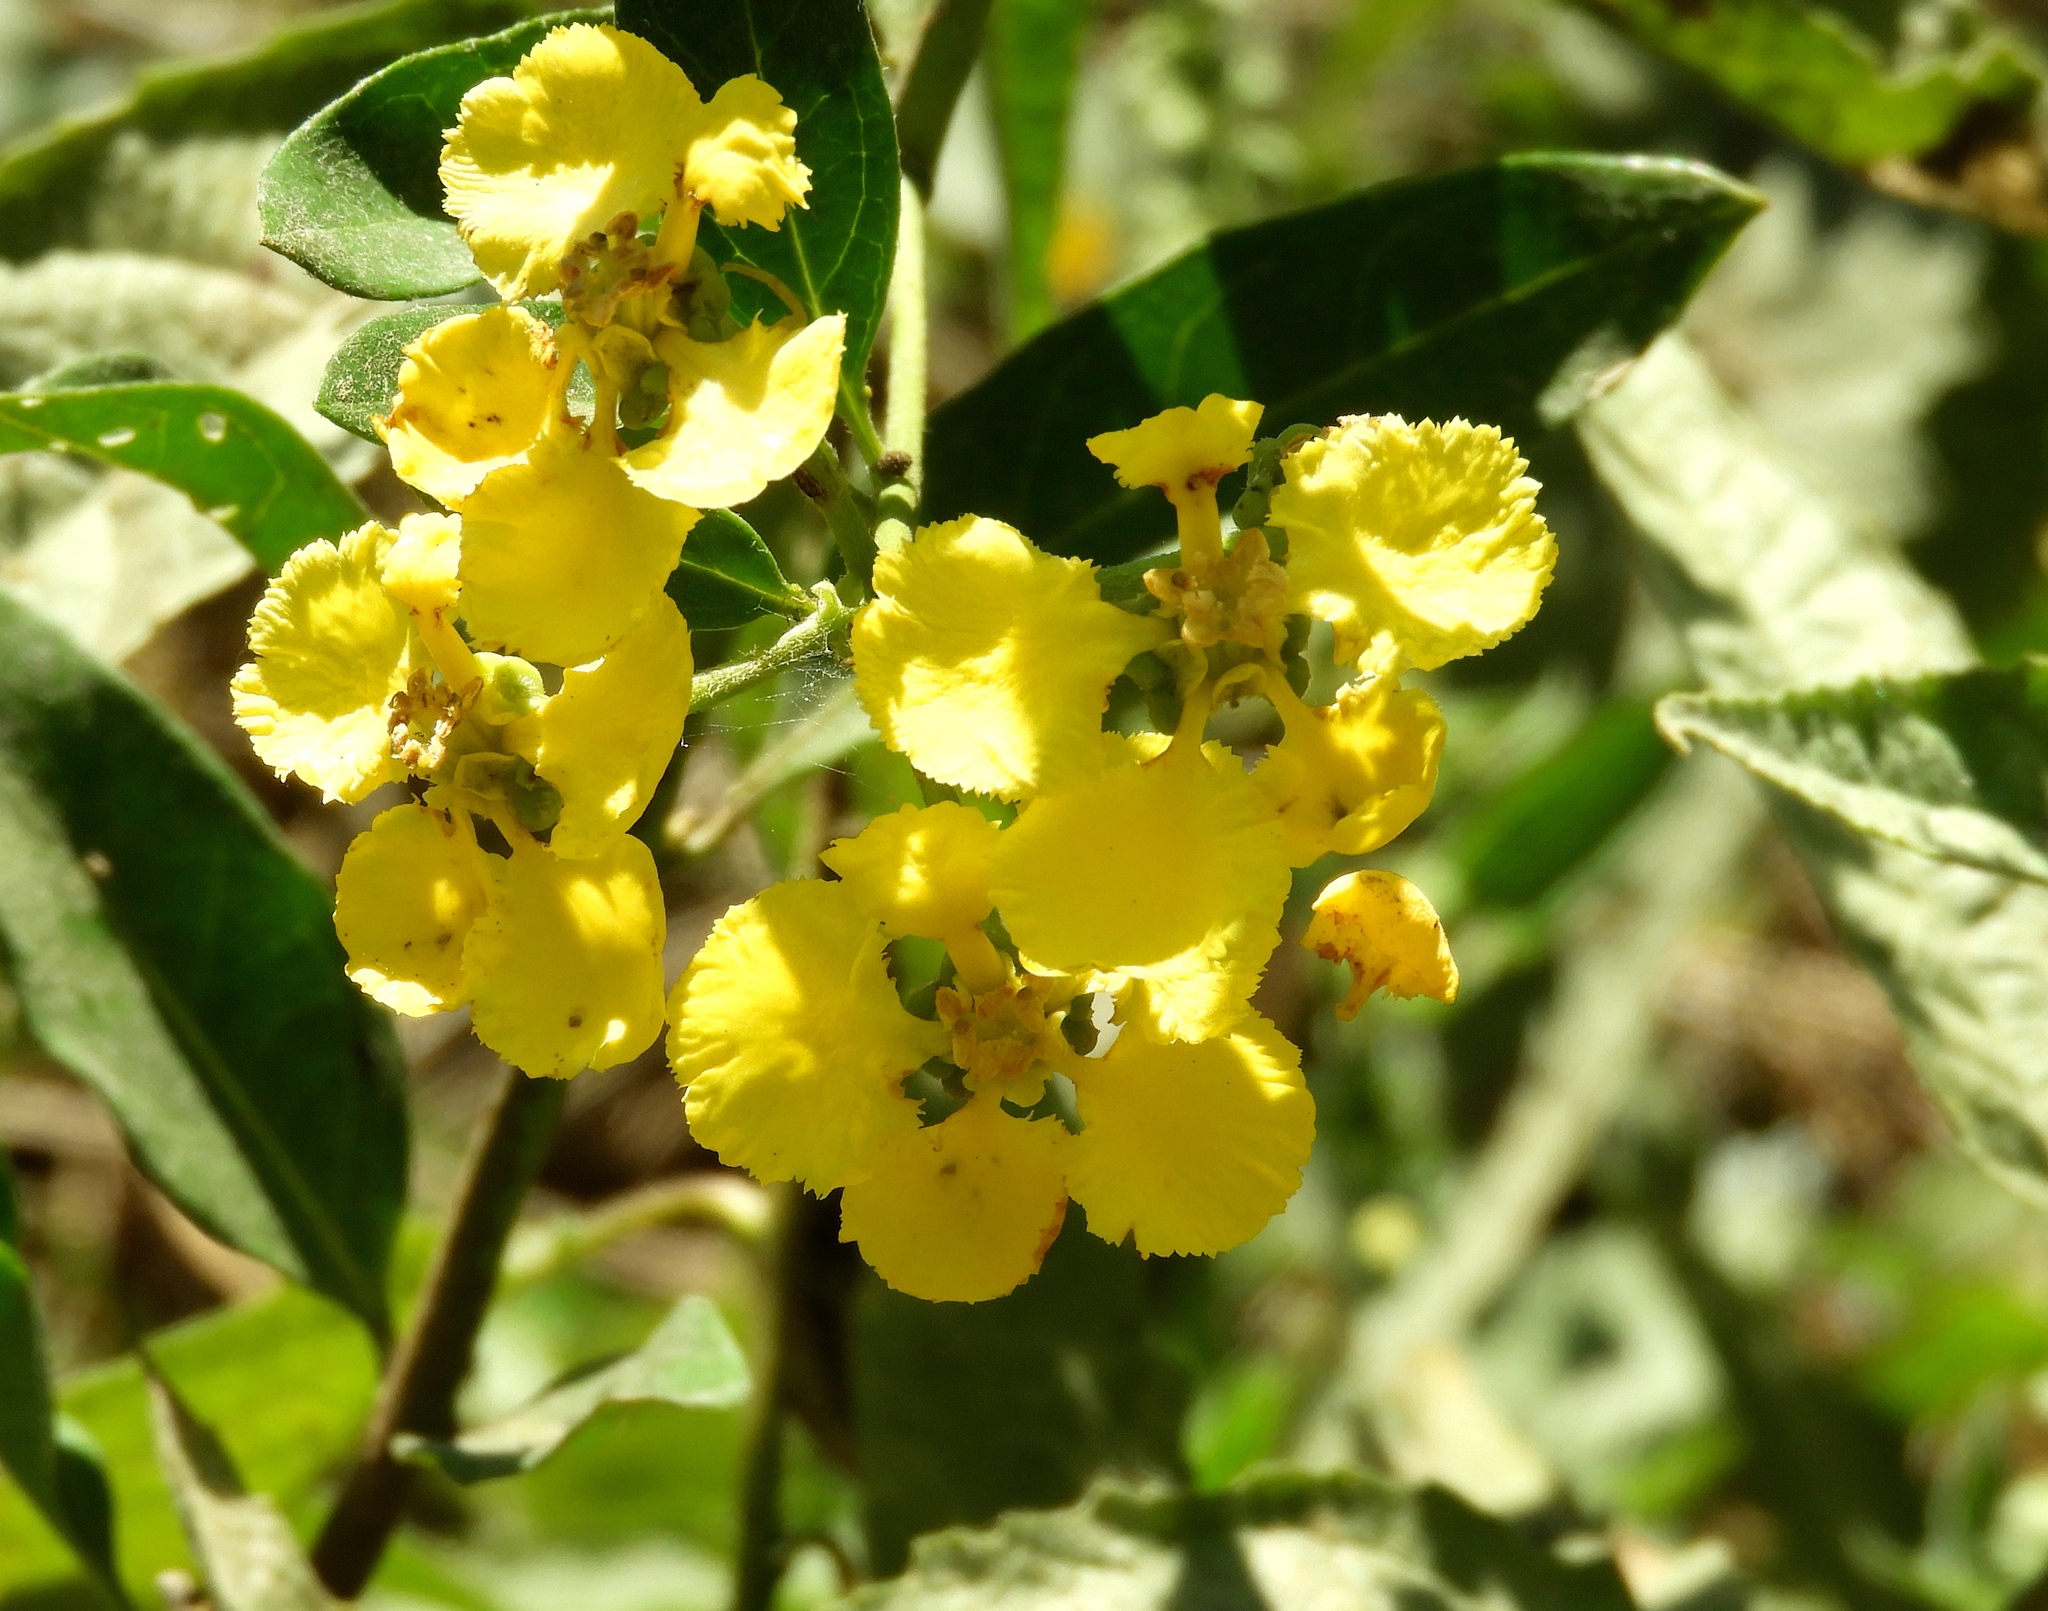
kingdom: Plantae
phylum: Tracheophyta
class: Magnoliopsida
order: Malpighiales
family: Malpighiaceae
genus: Callaeum
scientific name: Callaeum macropterum
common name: Mexican butterfly-vine
